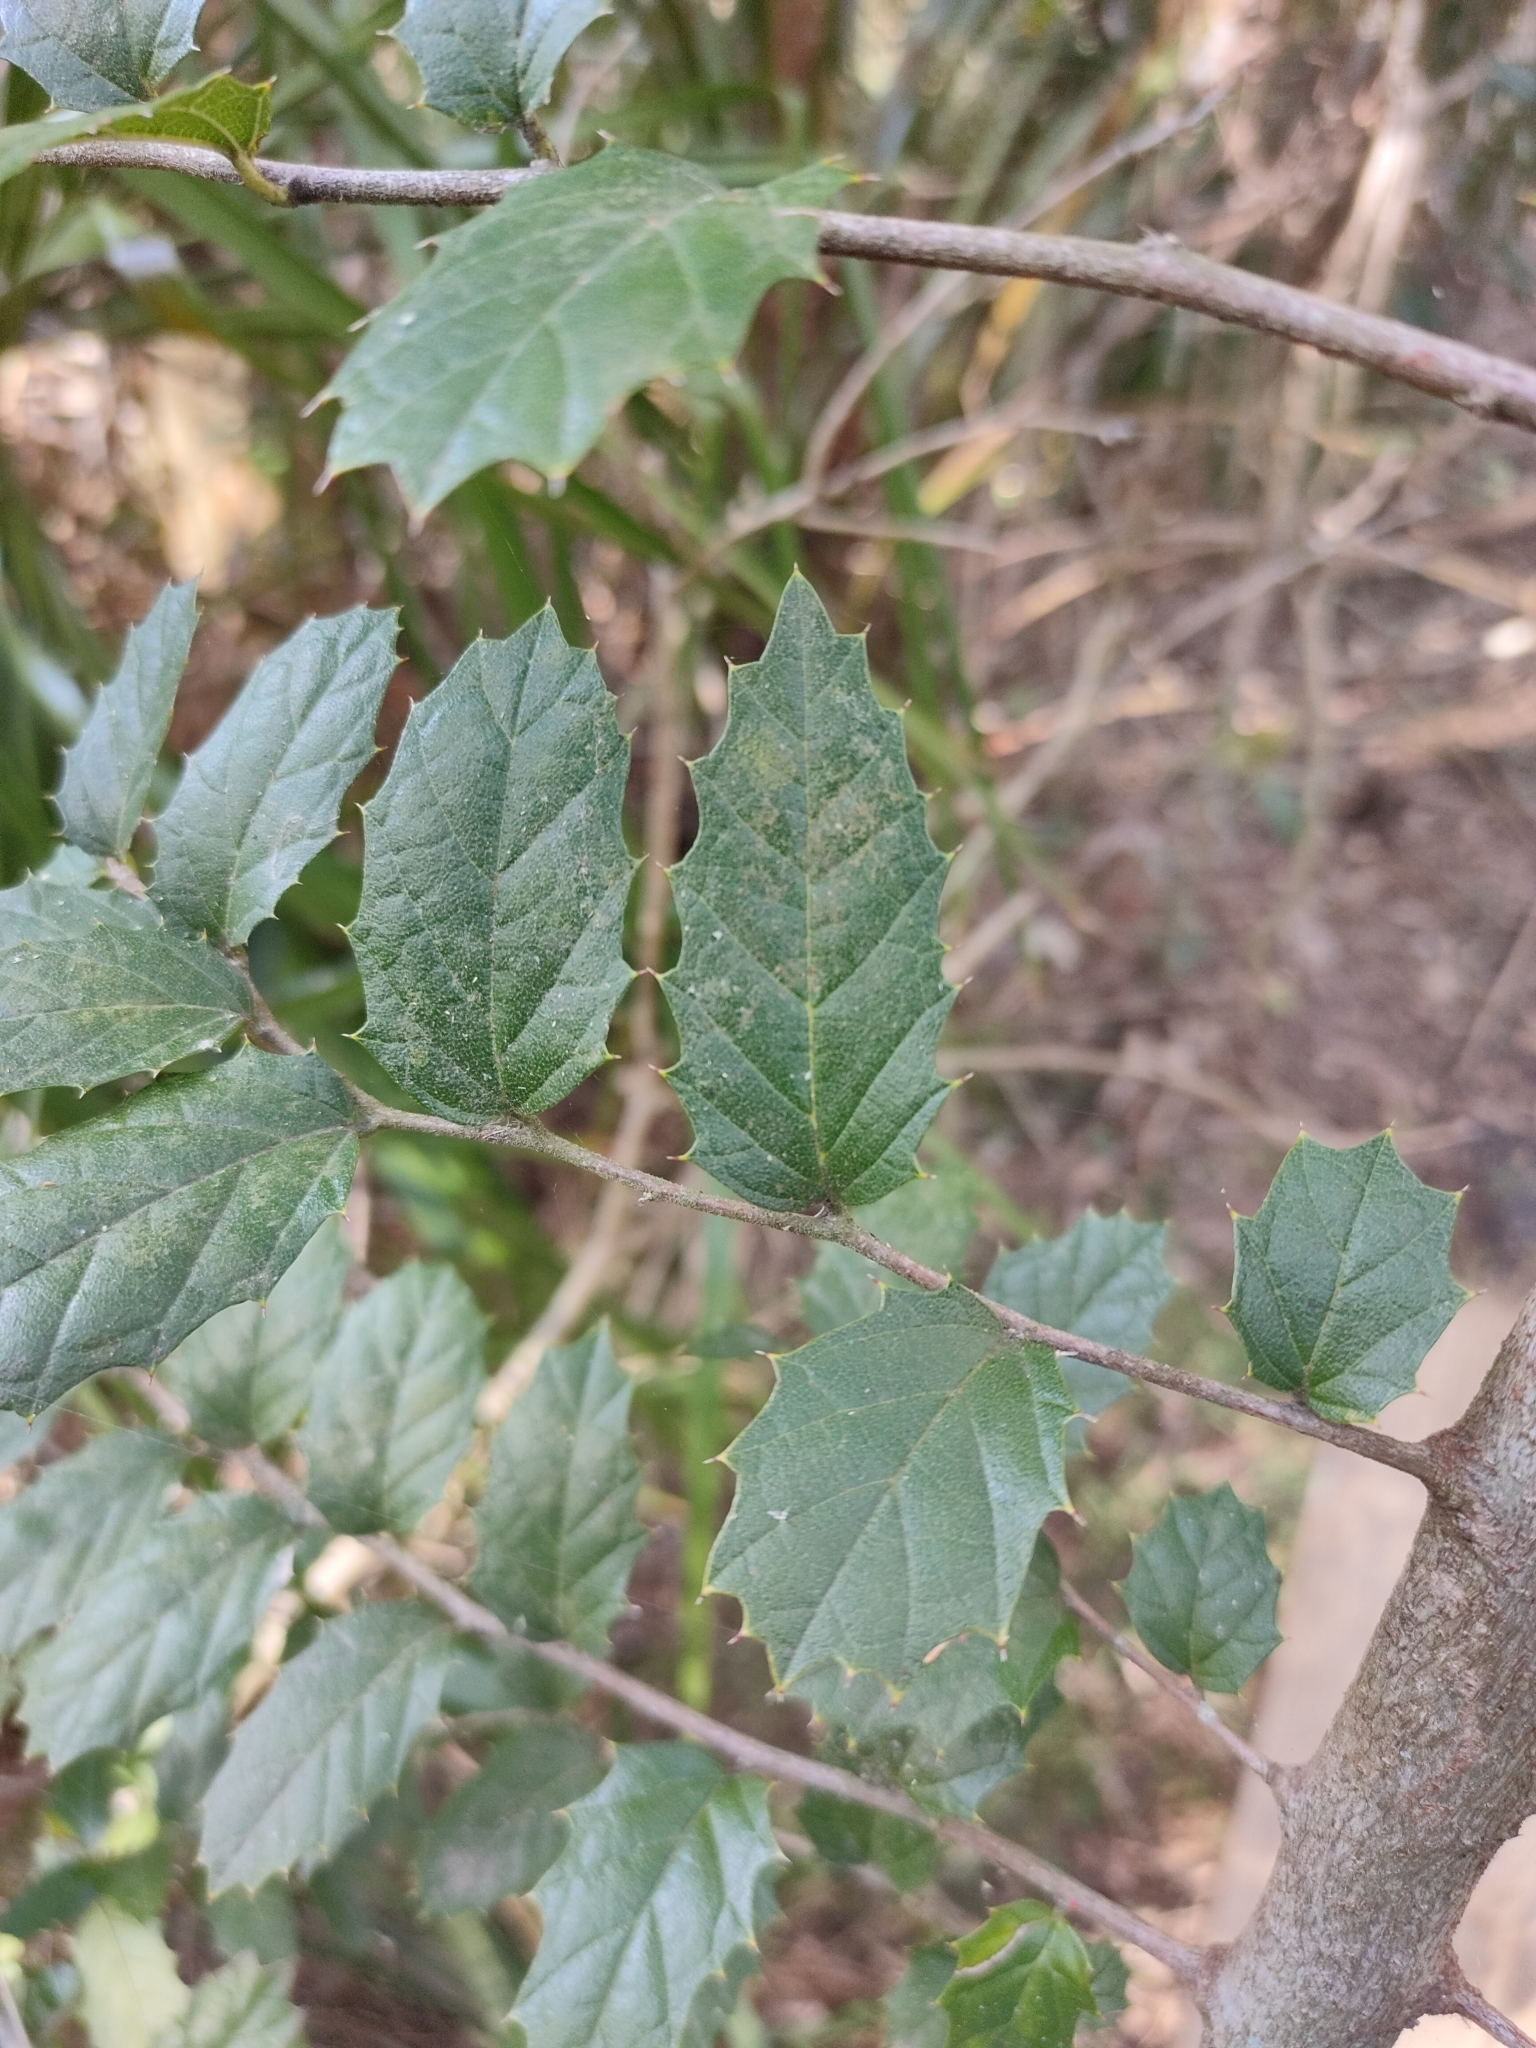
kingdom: Plantae
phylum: Tracheophyta
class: Magnoliopsida
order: Rosales
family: Cannabaceae
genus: Aphananthe
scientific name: Aphananthe philippinensis
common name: Wild holly
